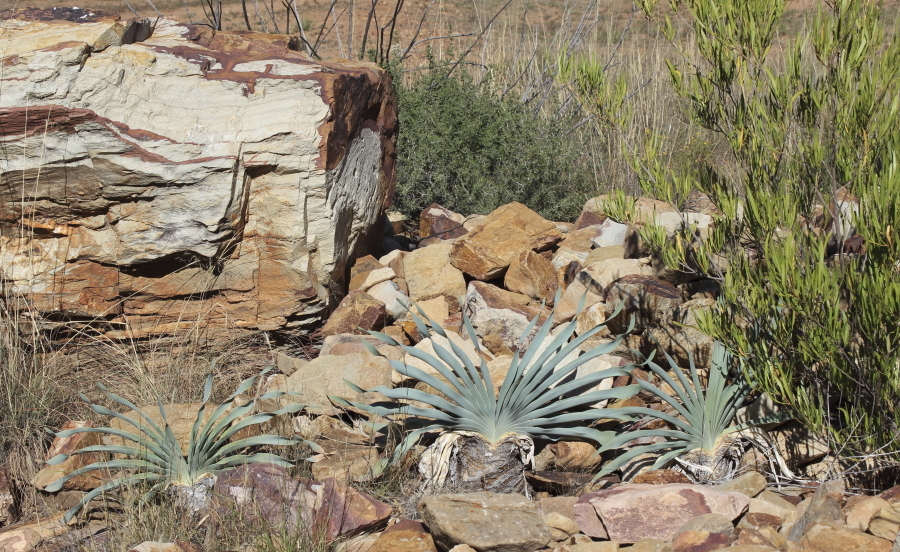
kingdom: Plantae
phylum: Tracheophyta
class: Liliopsida
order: Asparagales
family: Amaryllidaceae
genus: Boophone
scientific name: Boophone disticha
